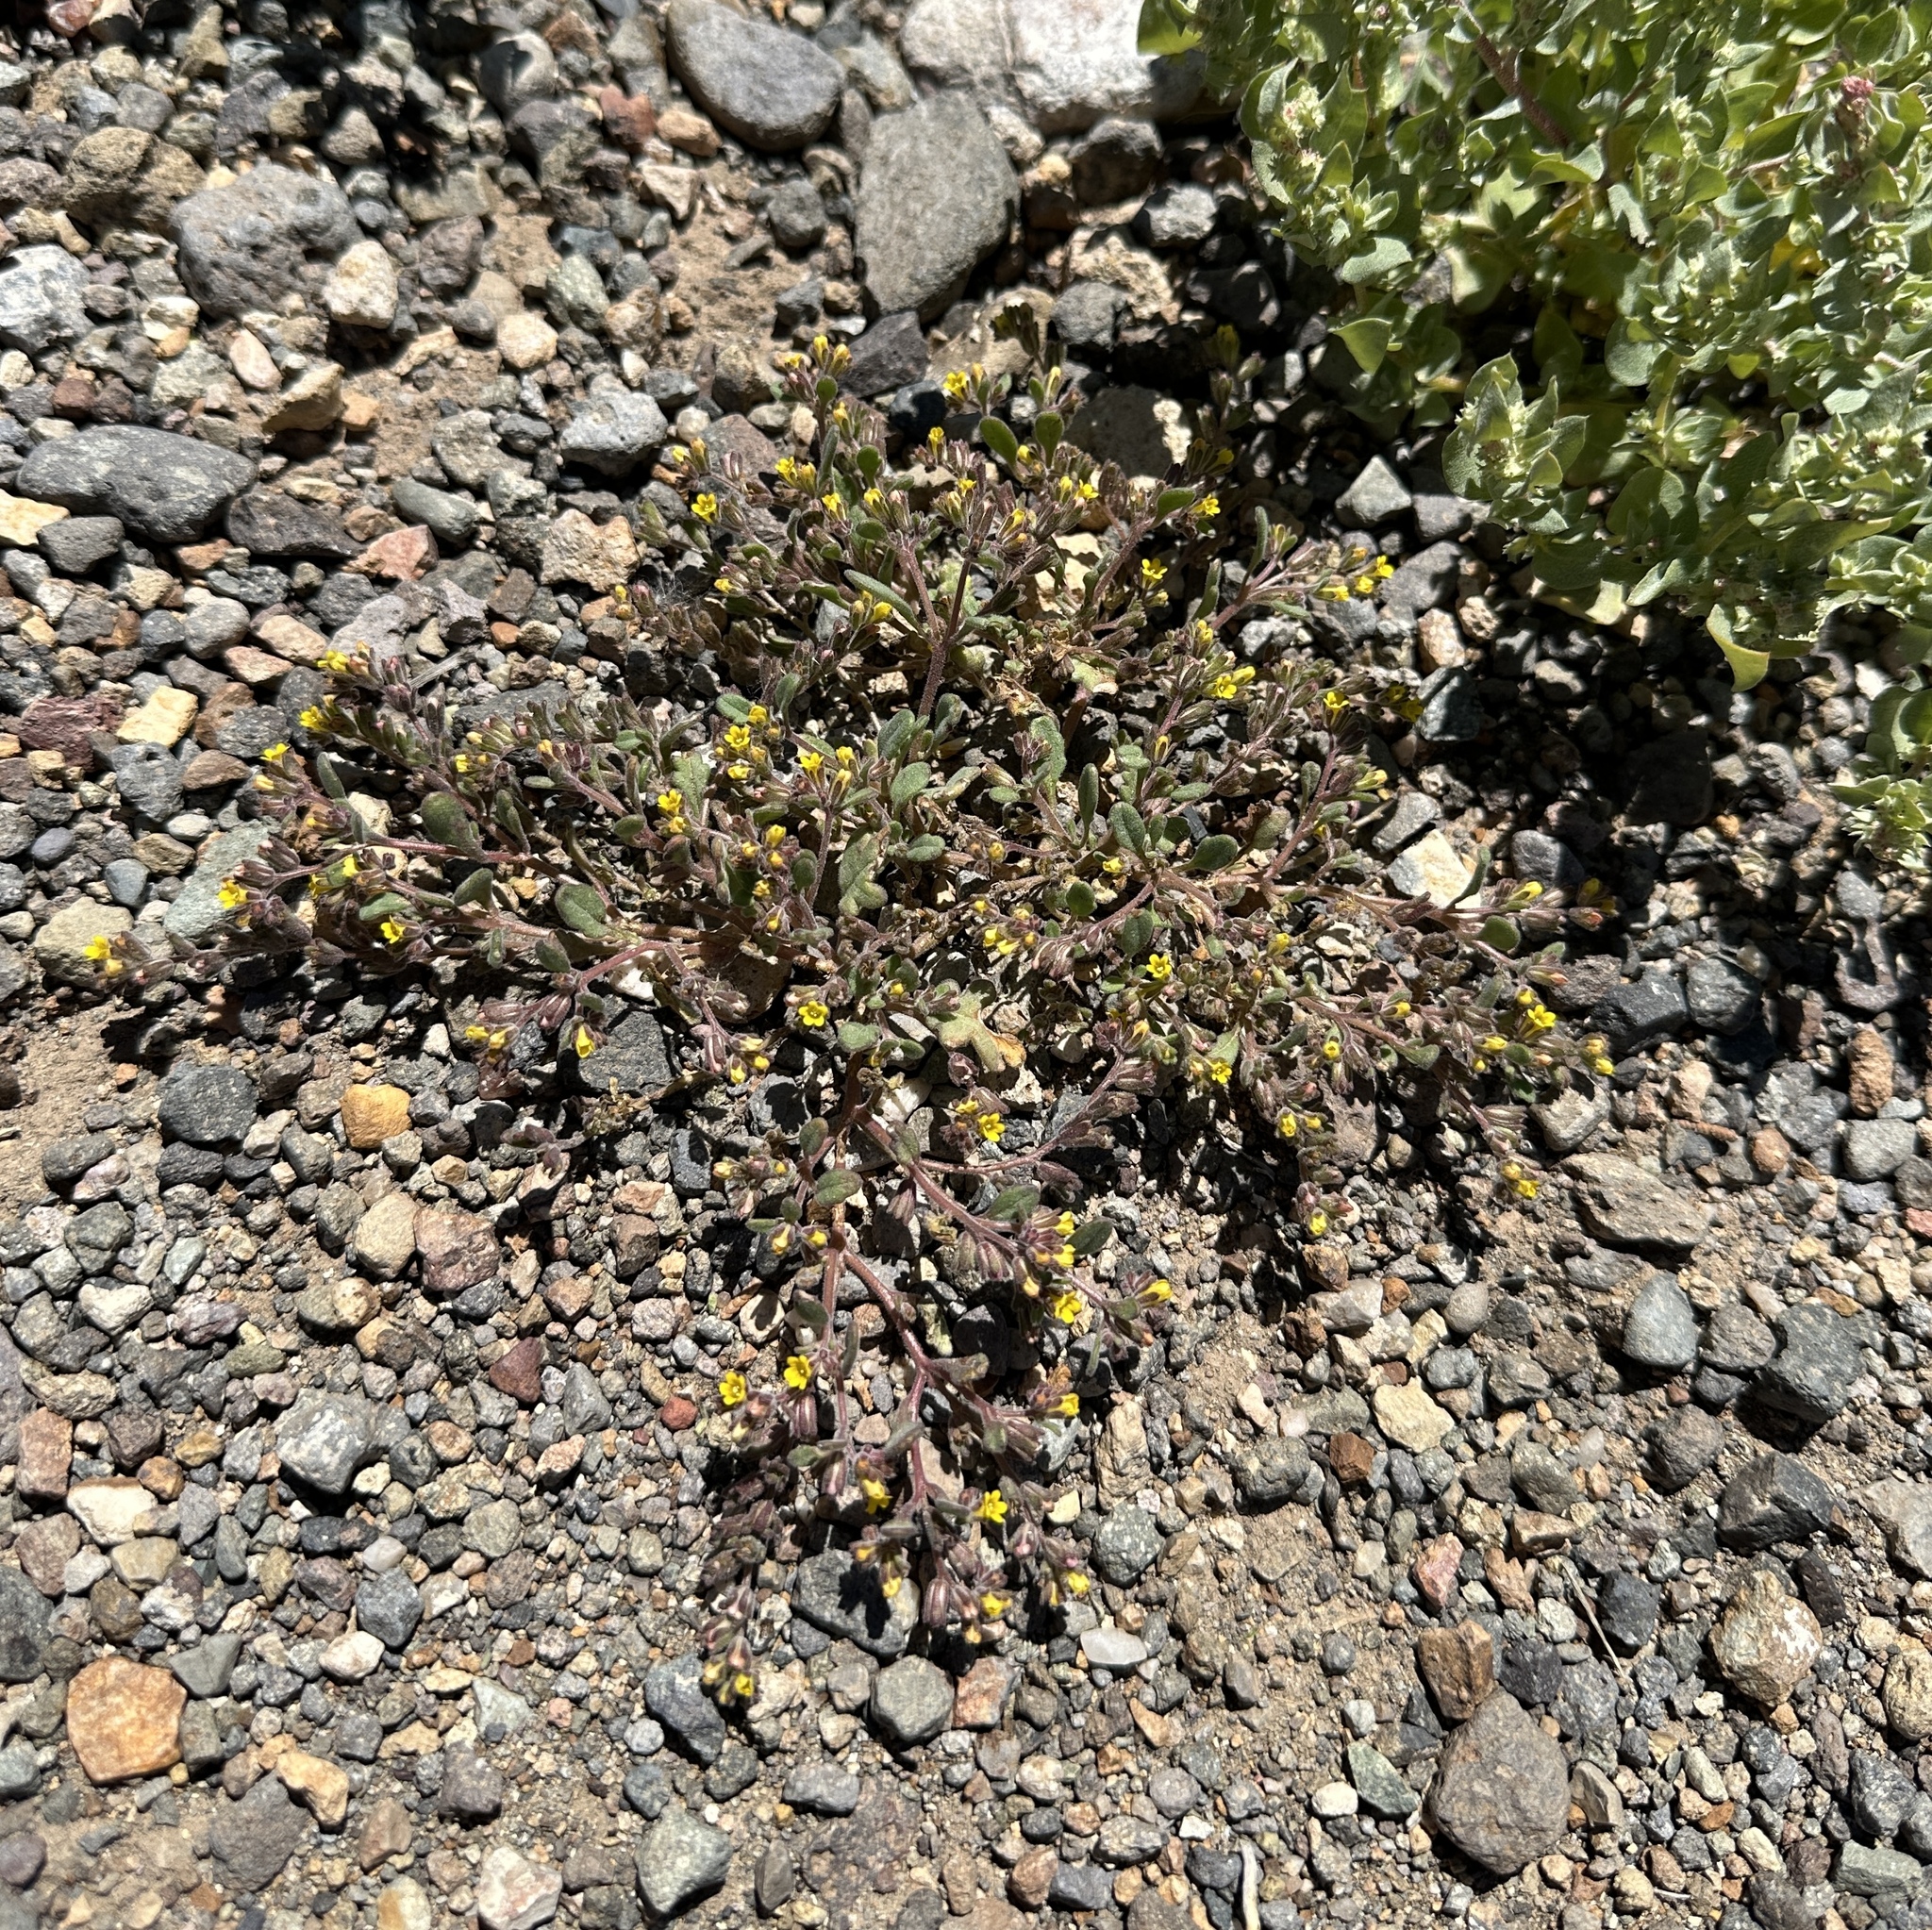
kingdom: Plantae
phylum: Tracheophyta
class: Magnoliopsida
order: Boraginales
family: Hydrophyllaceae
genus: Phacelia
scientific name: Phacelia monoensis
